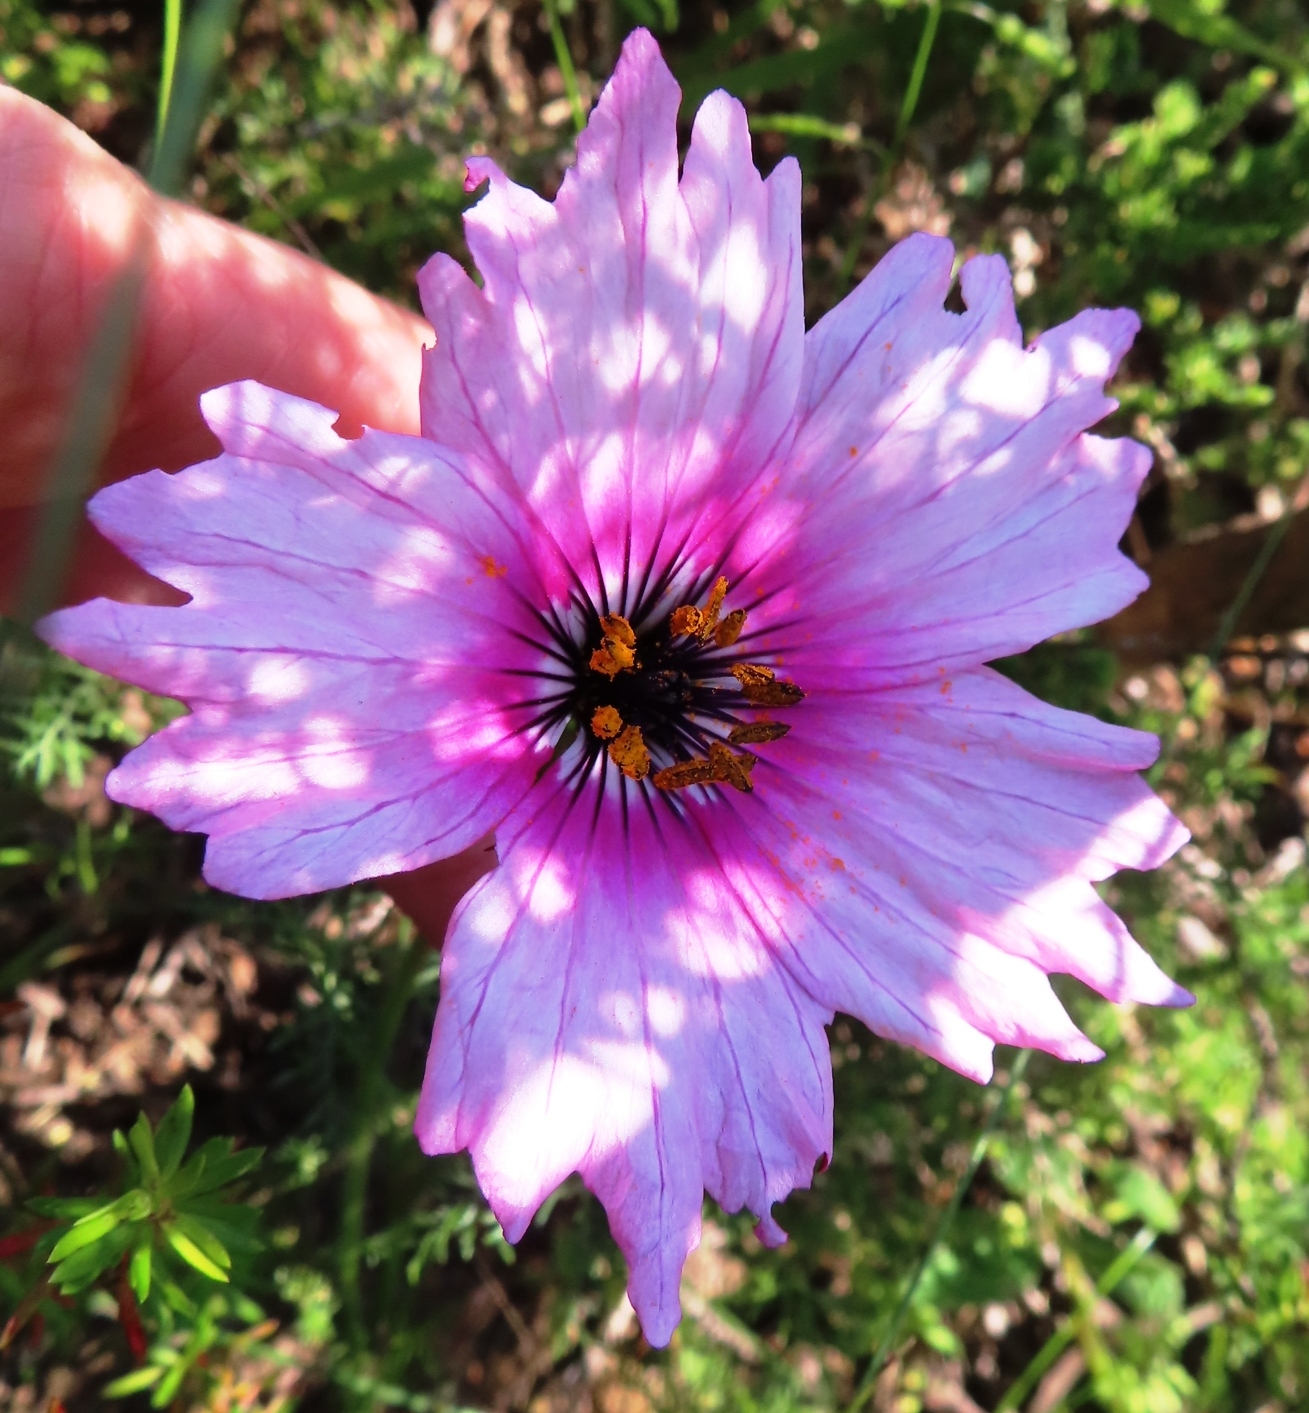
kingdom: Plantae
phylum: Tracheophyta
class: Magnoliopsida
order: Geraniales
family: Geraniaceae
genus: Monsonia
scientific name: Monsonia speciosa
